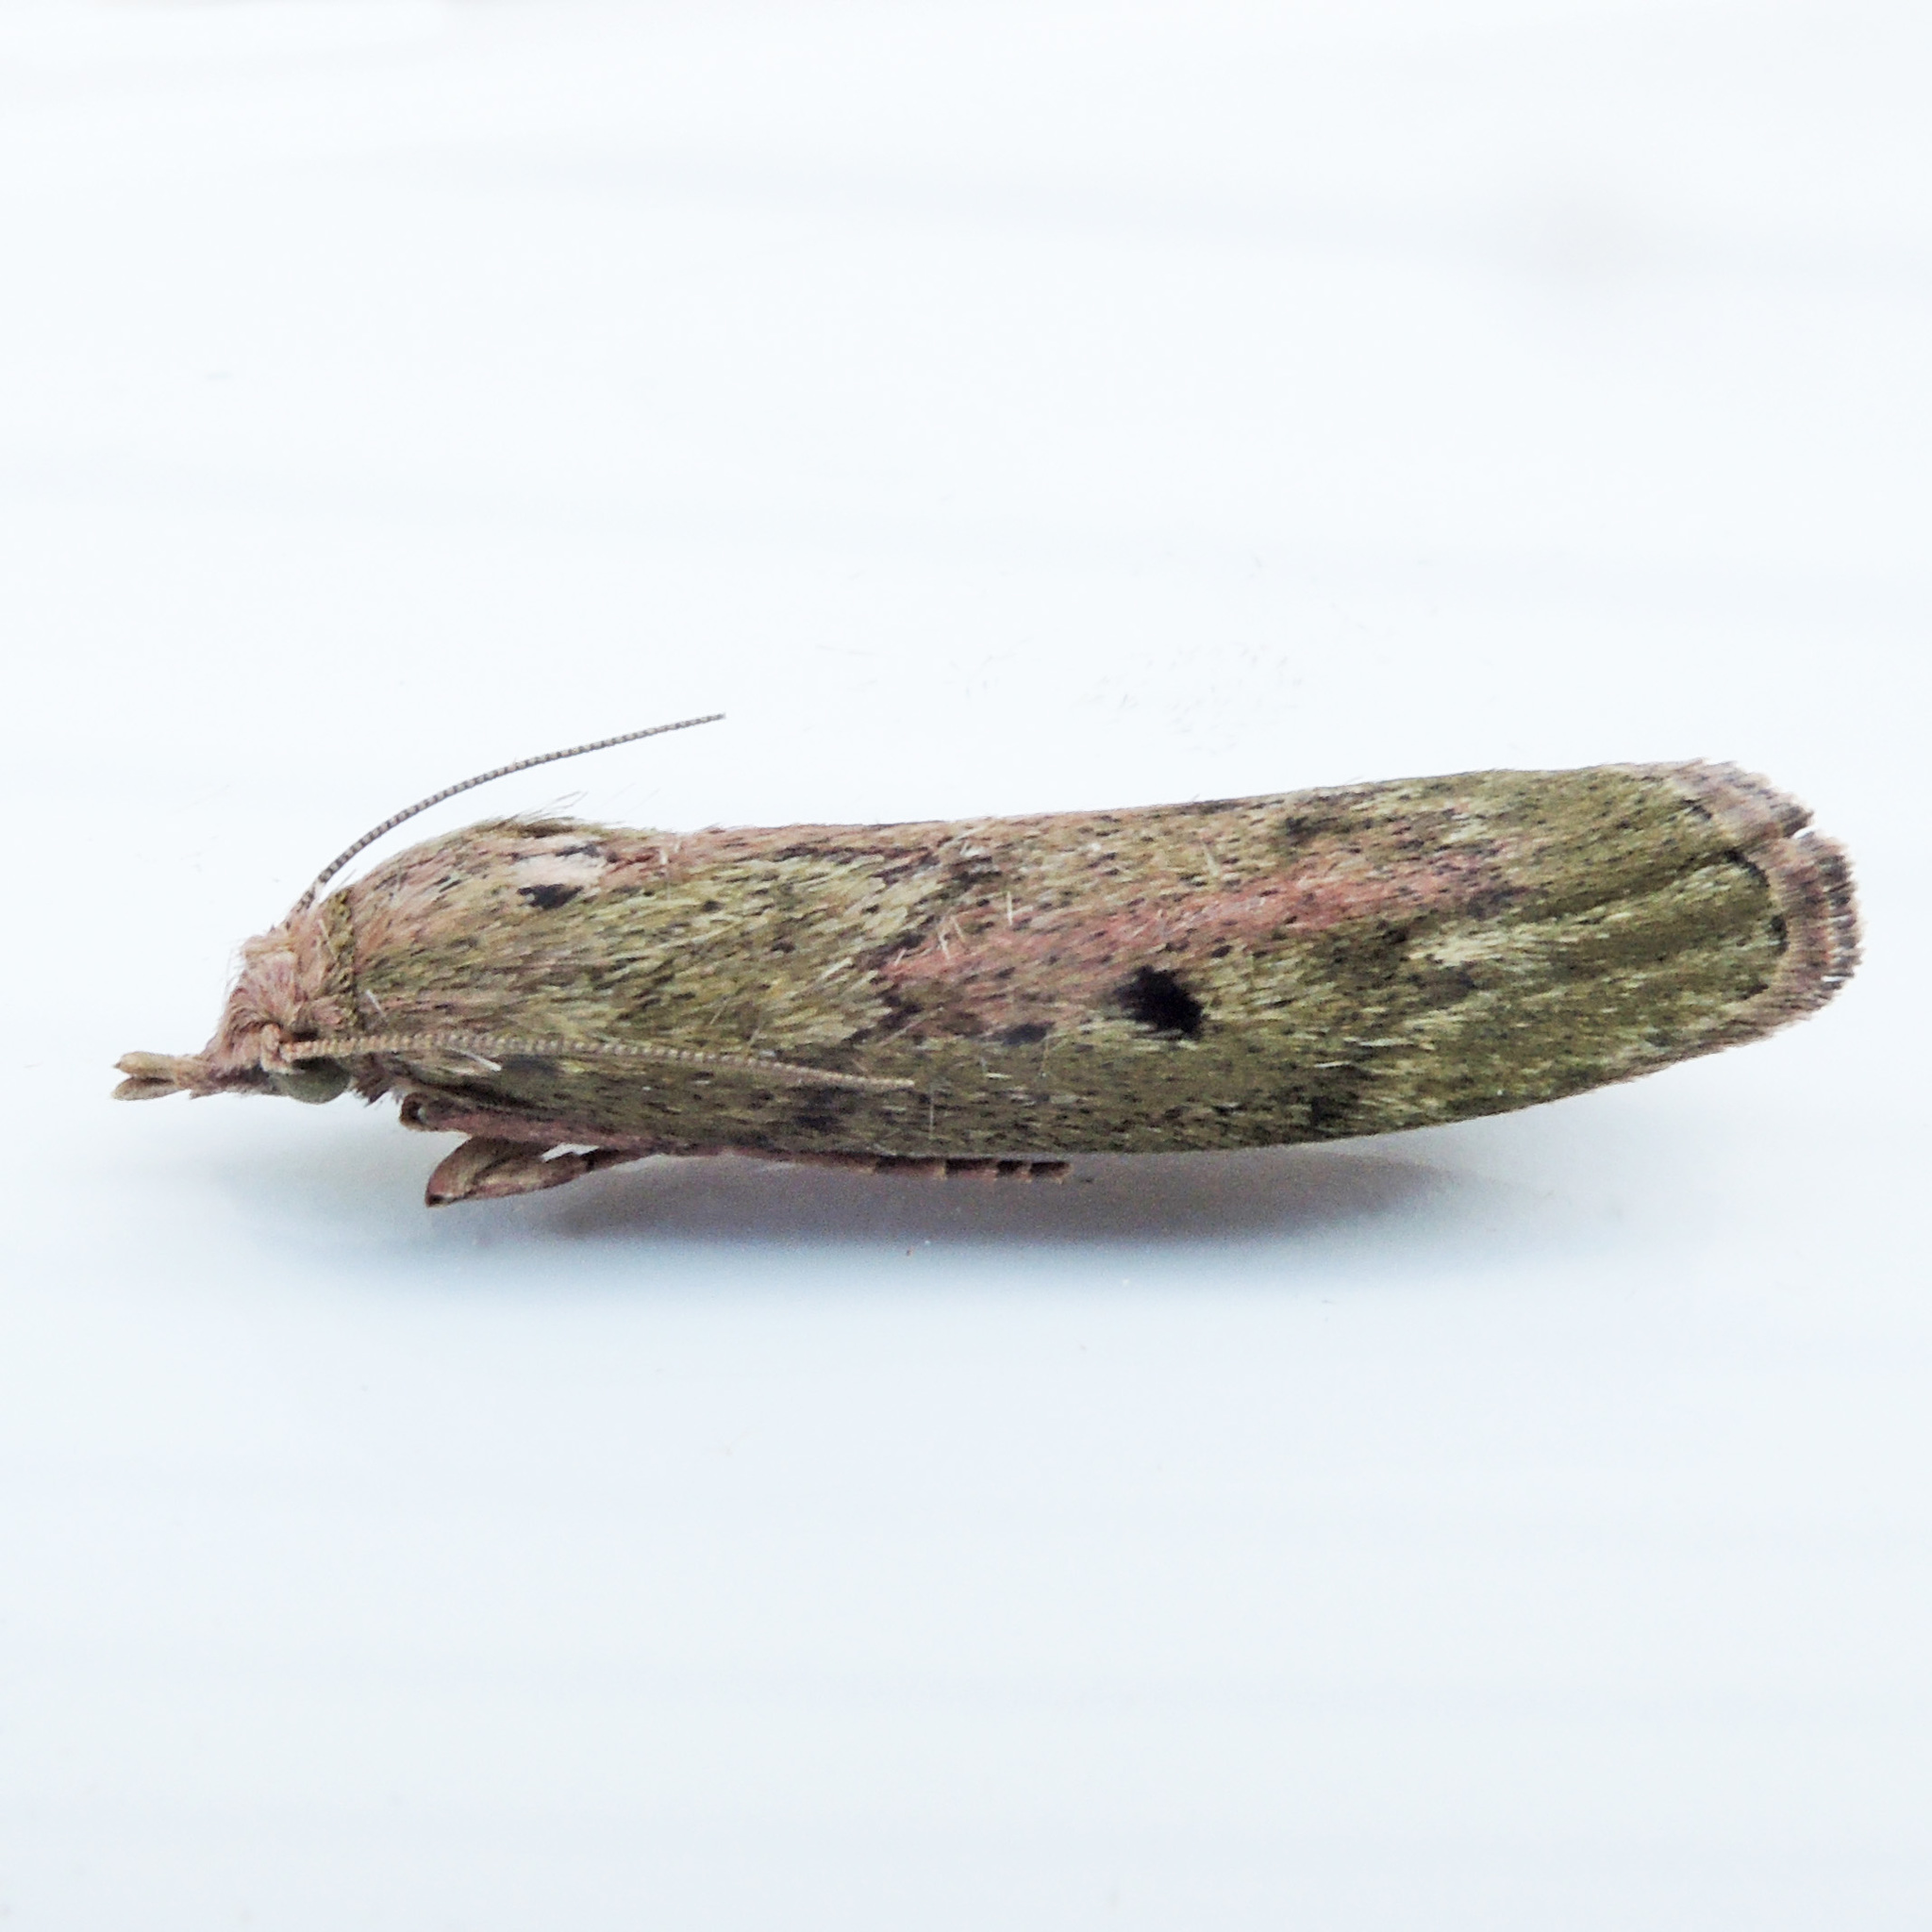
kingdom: Animalia
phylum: Arthropoda
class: Insecta
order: Lepidoptera
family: Pyralidae
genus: Aphomia
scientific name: Aphomia sociella
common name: Bee moth
